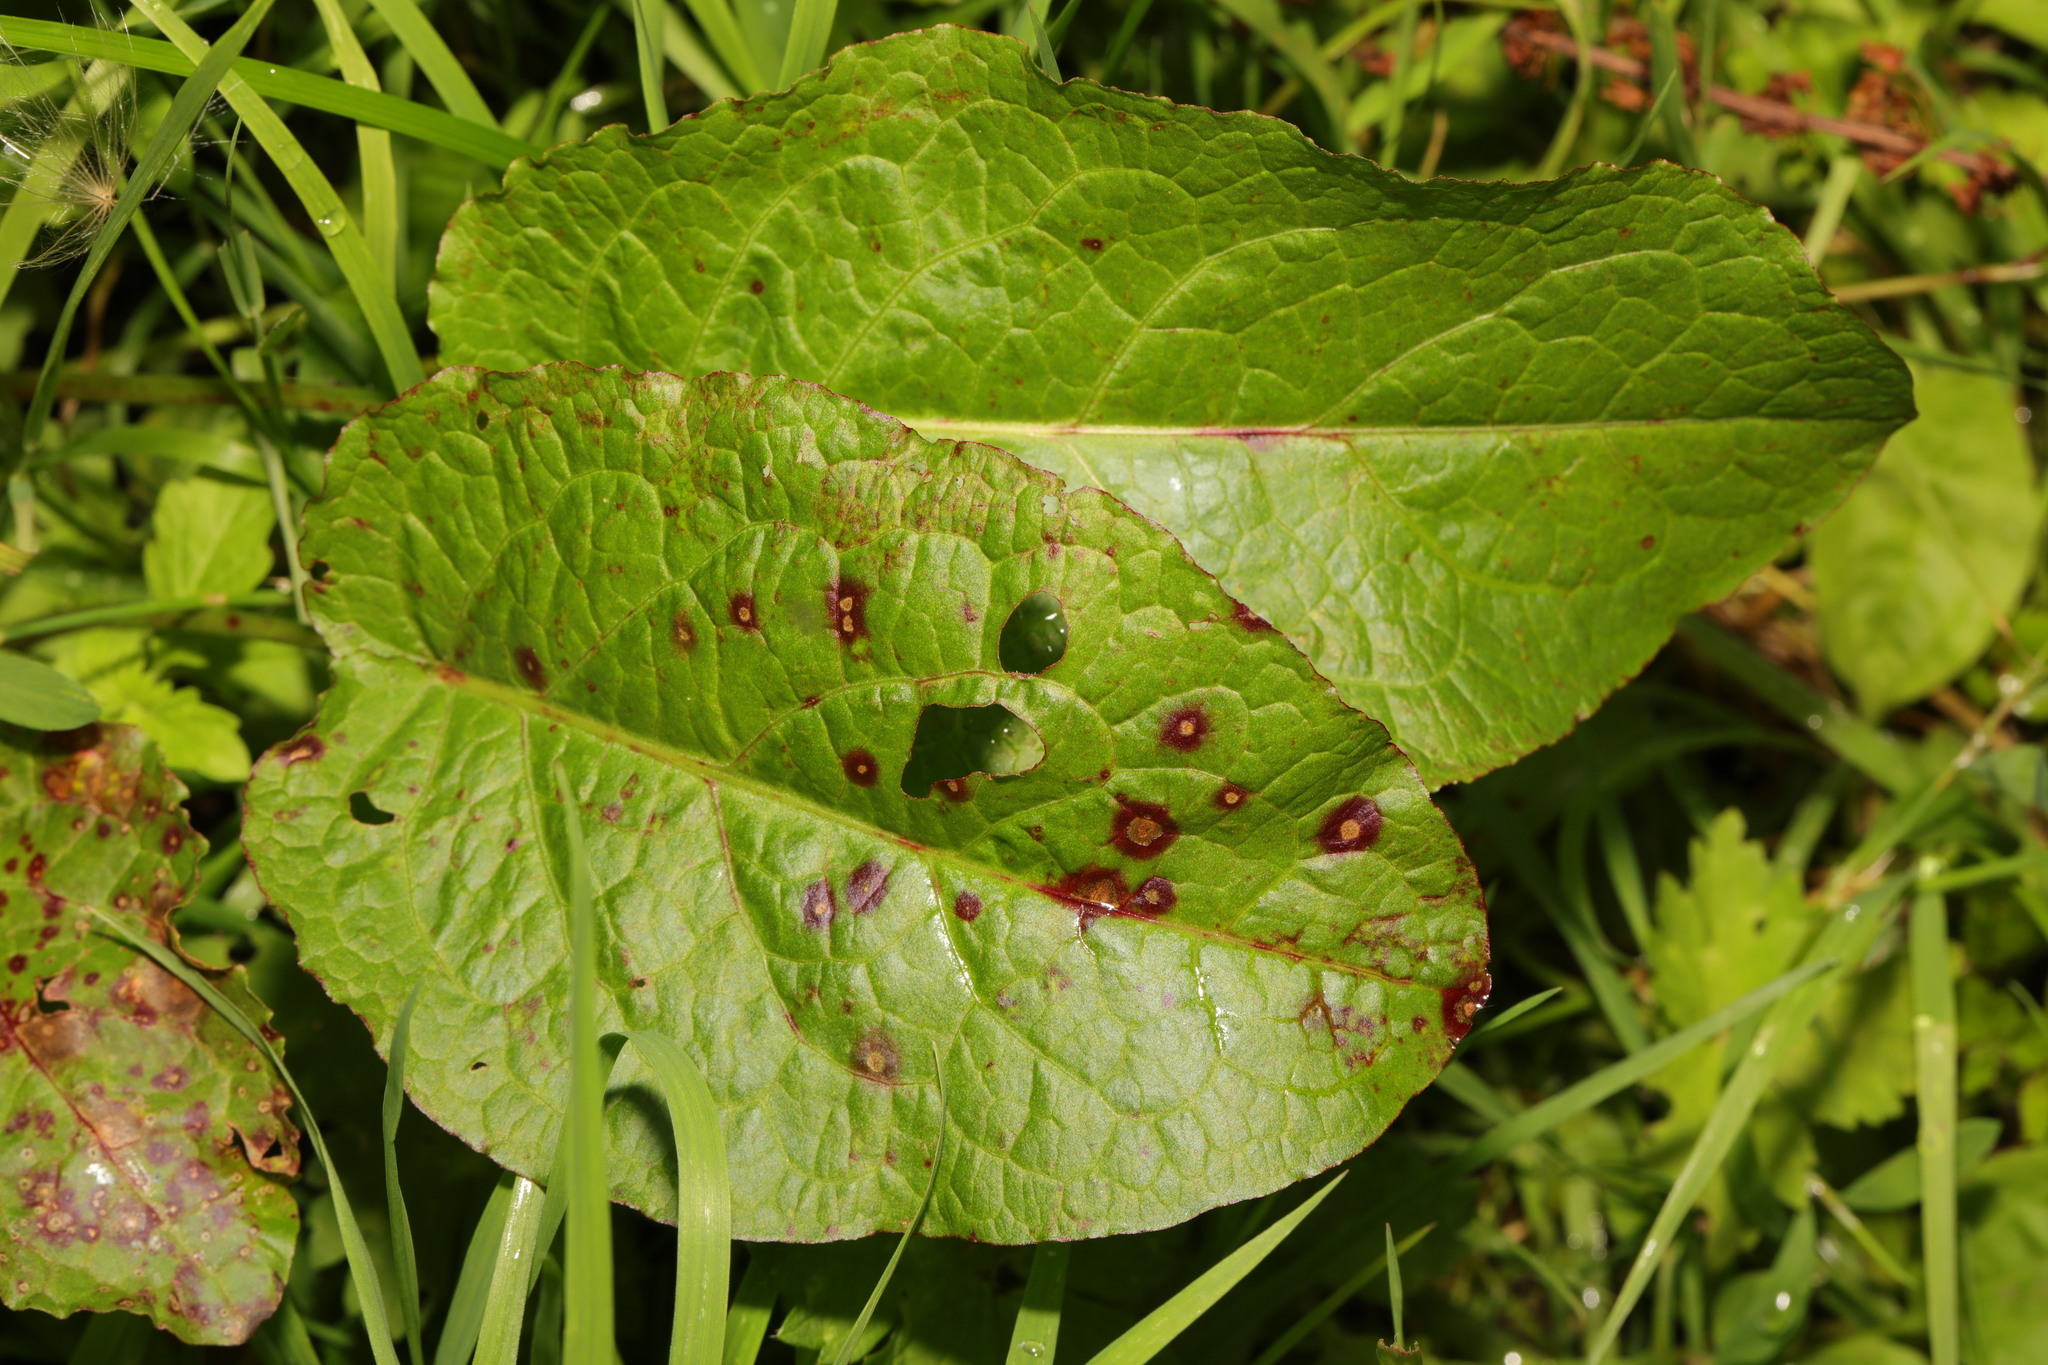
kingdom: Plantae
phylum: Tracheophyta
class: Magnoliopsida
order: Caryophyllales
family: Polygonaceae
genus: Rumex
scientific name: Rumex obtusifolius
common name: Bitter dock
